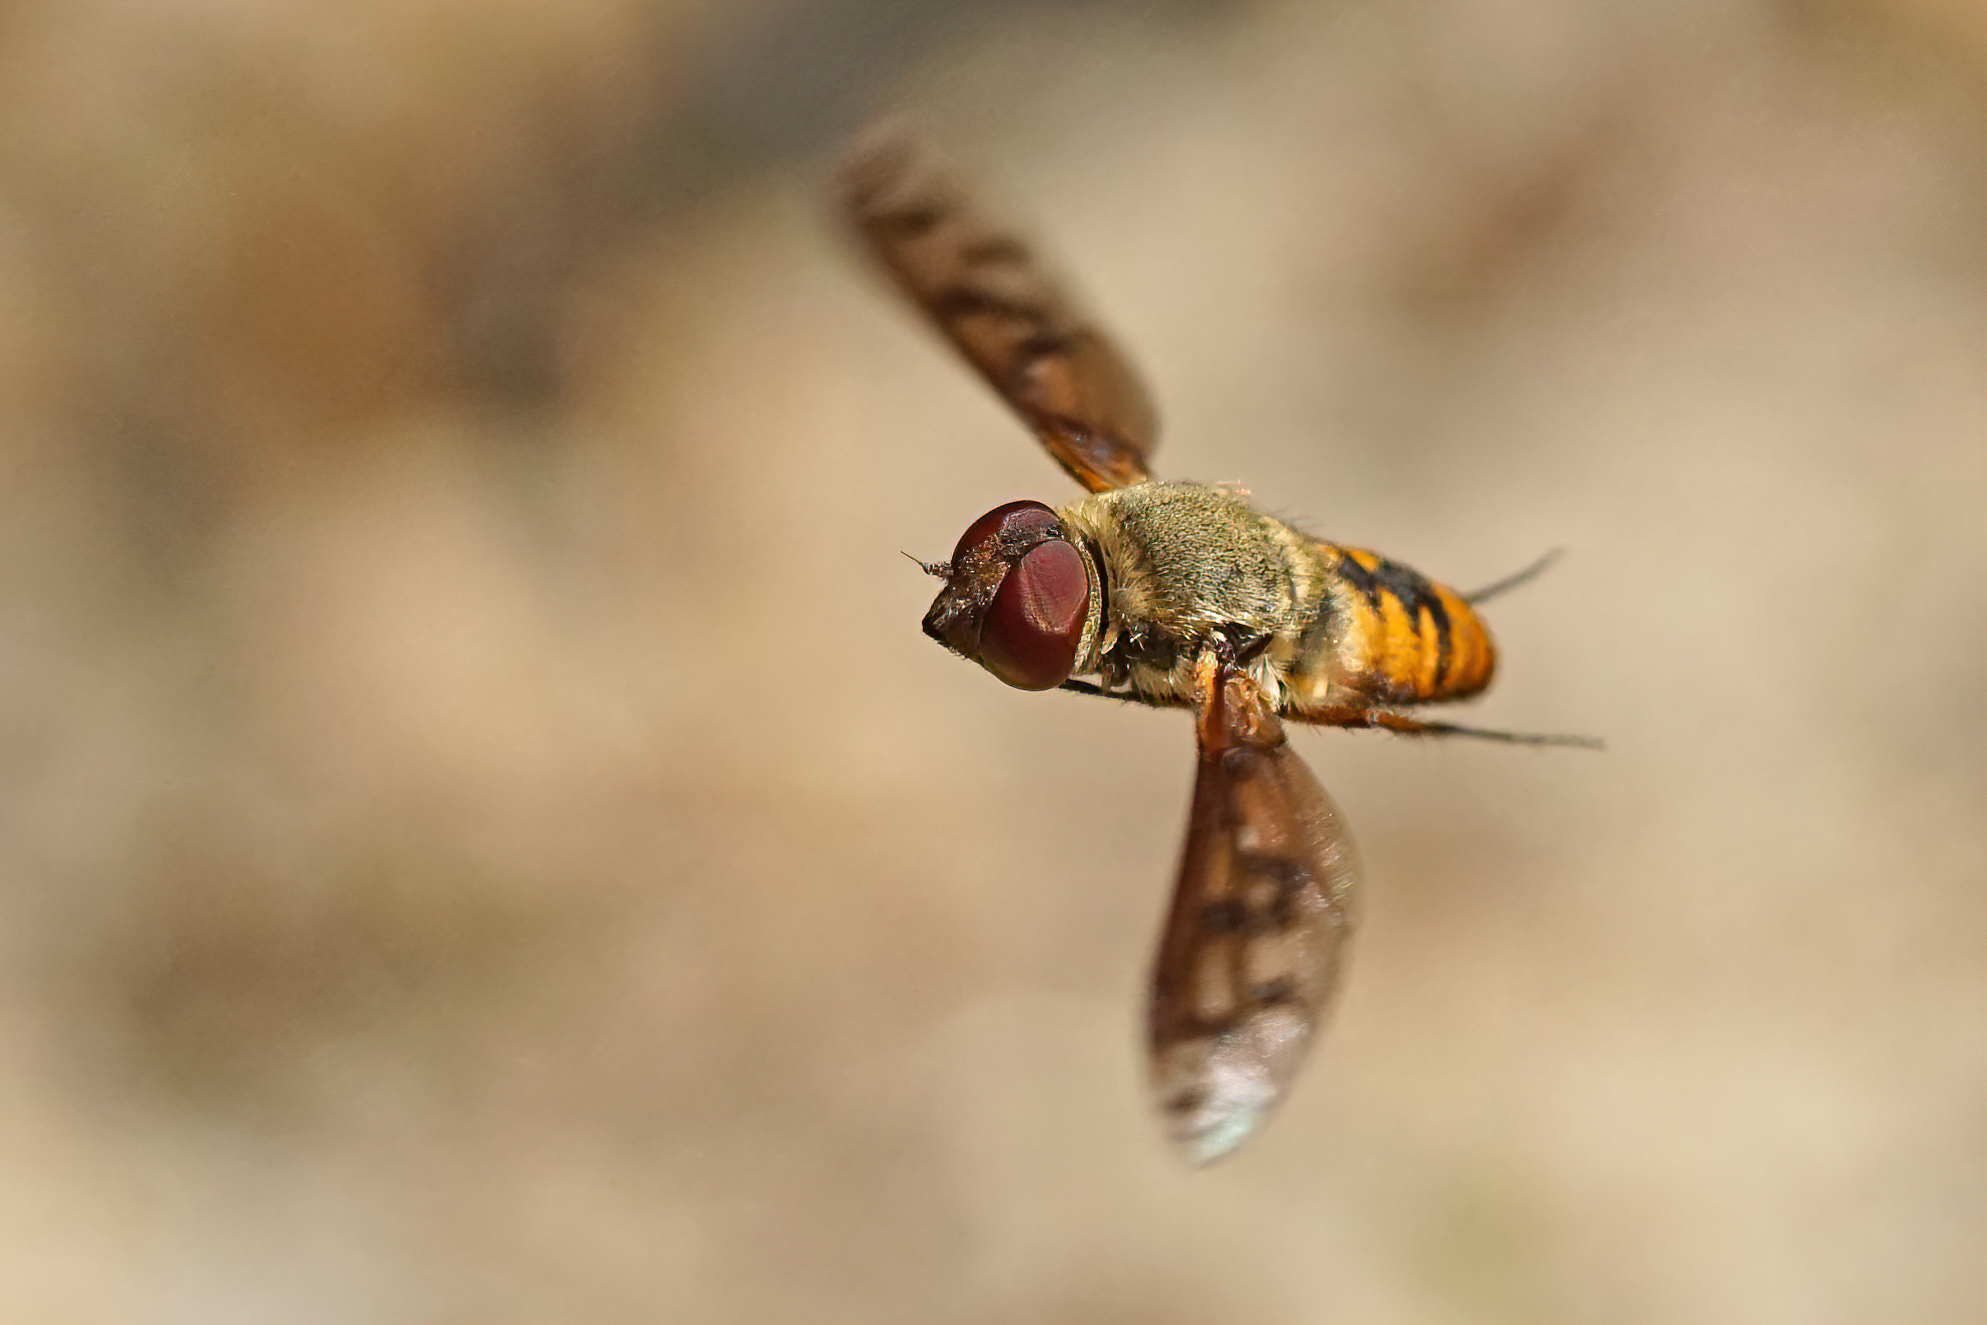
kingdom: Animalia
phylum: Arthropoda
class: Insecta
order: Diptera
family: Bombyliidae
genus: Neodiplocampta
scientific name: Neodiplocampta miranda
